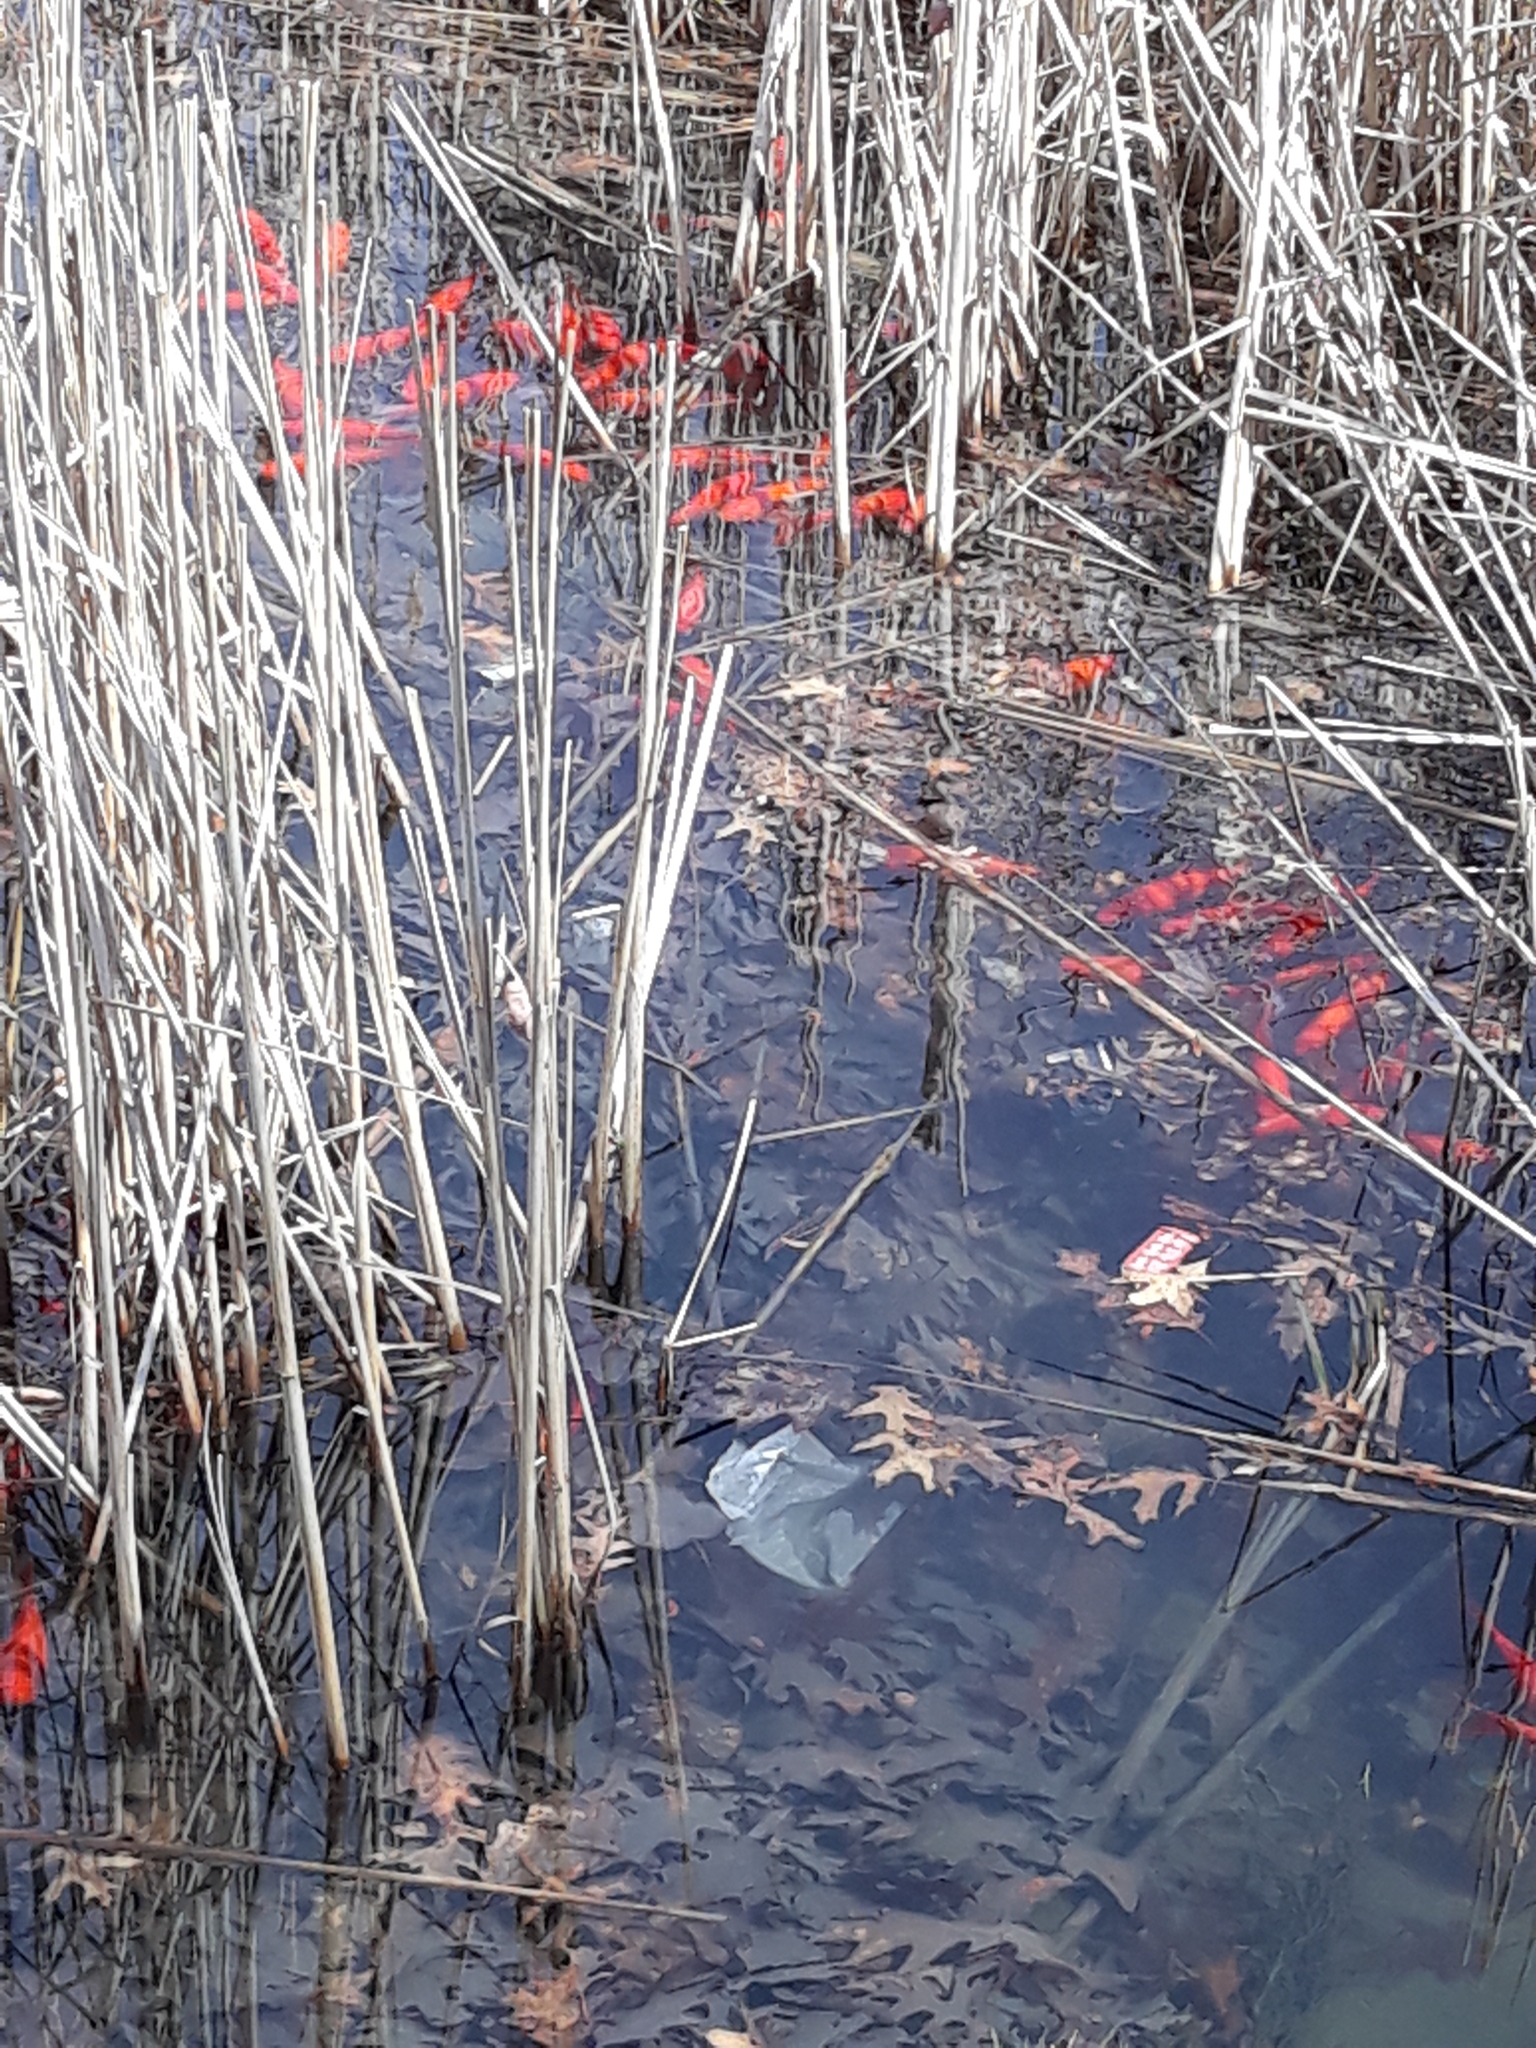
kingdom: Animalia
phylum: Chordata
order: Cypriniformes
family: Cyprinidae
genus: Carassius
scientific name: Carassius auratus
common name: Goldfish
